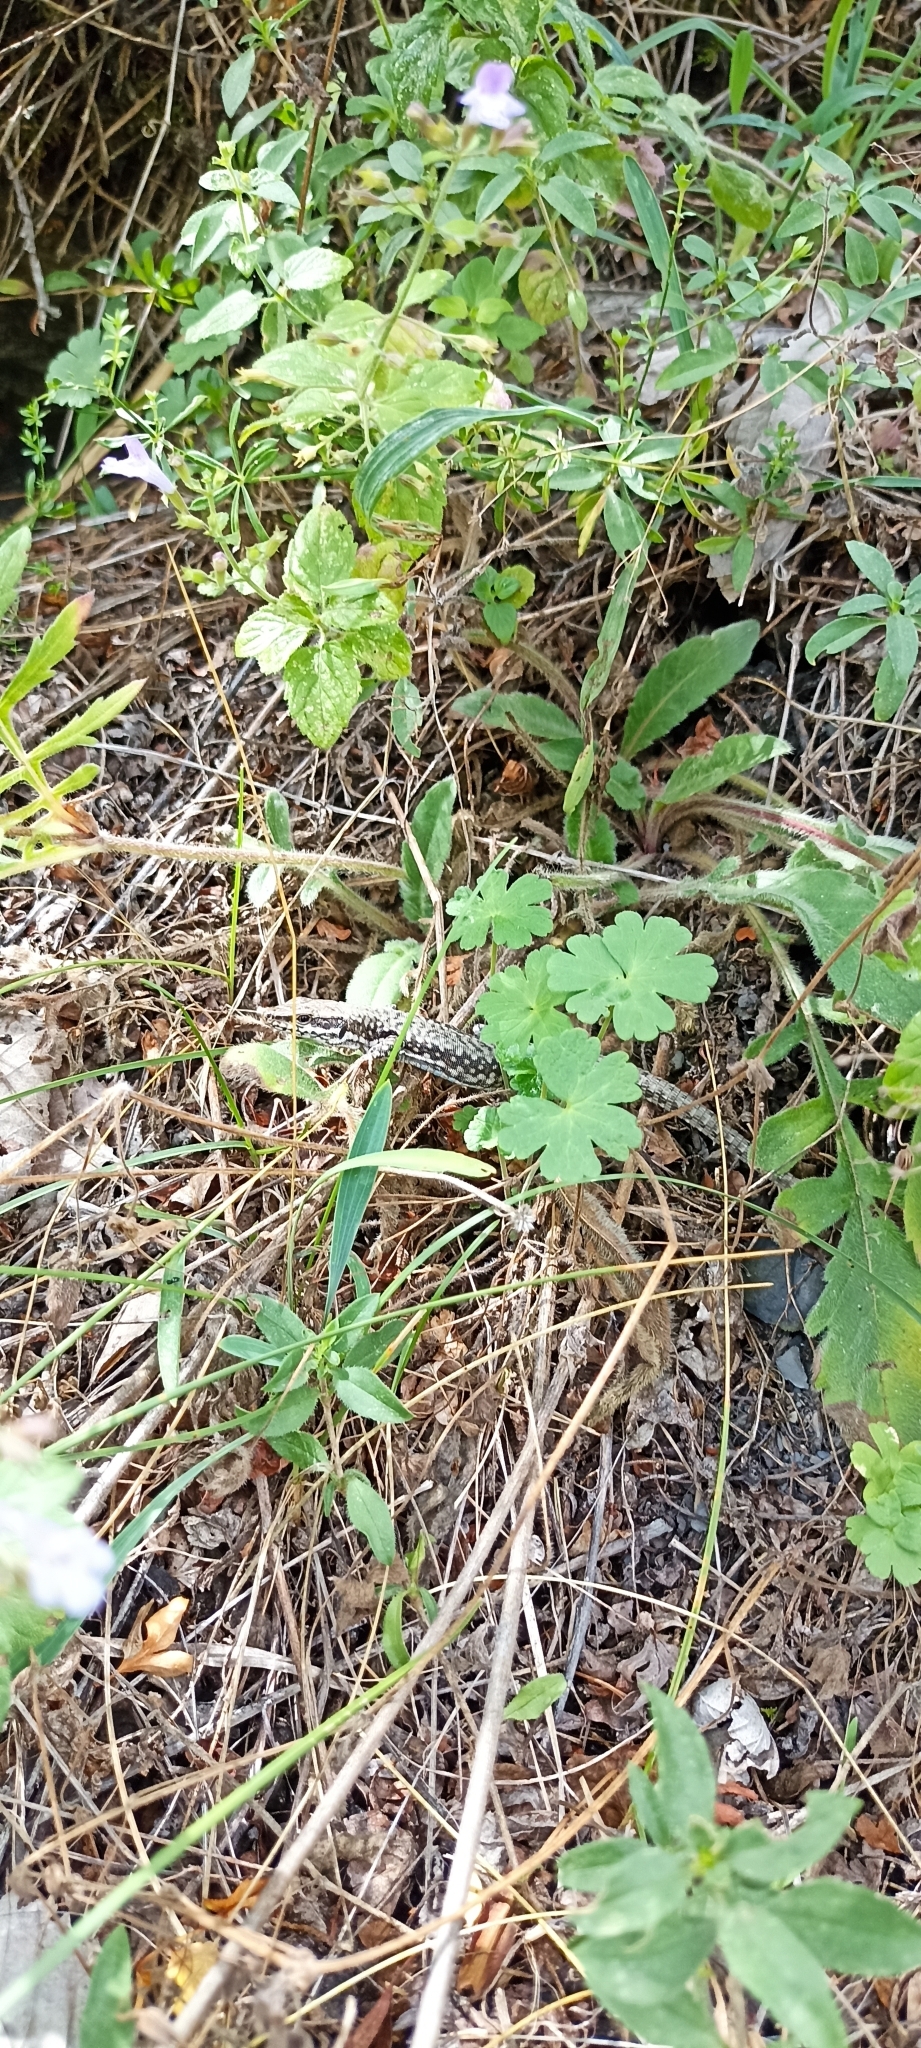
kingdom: Animalia
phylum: Chordata
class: Squamata
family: Lacertidae
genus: Podarcis
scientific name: Podarcis muralis
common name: Common wall lizard
